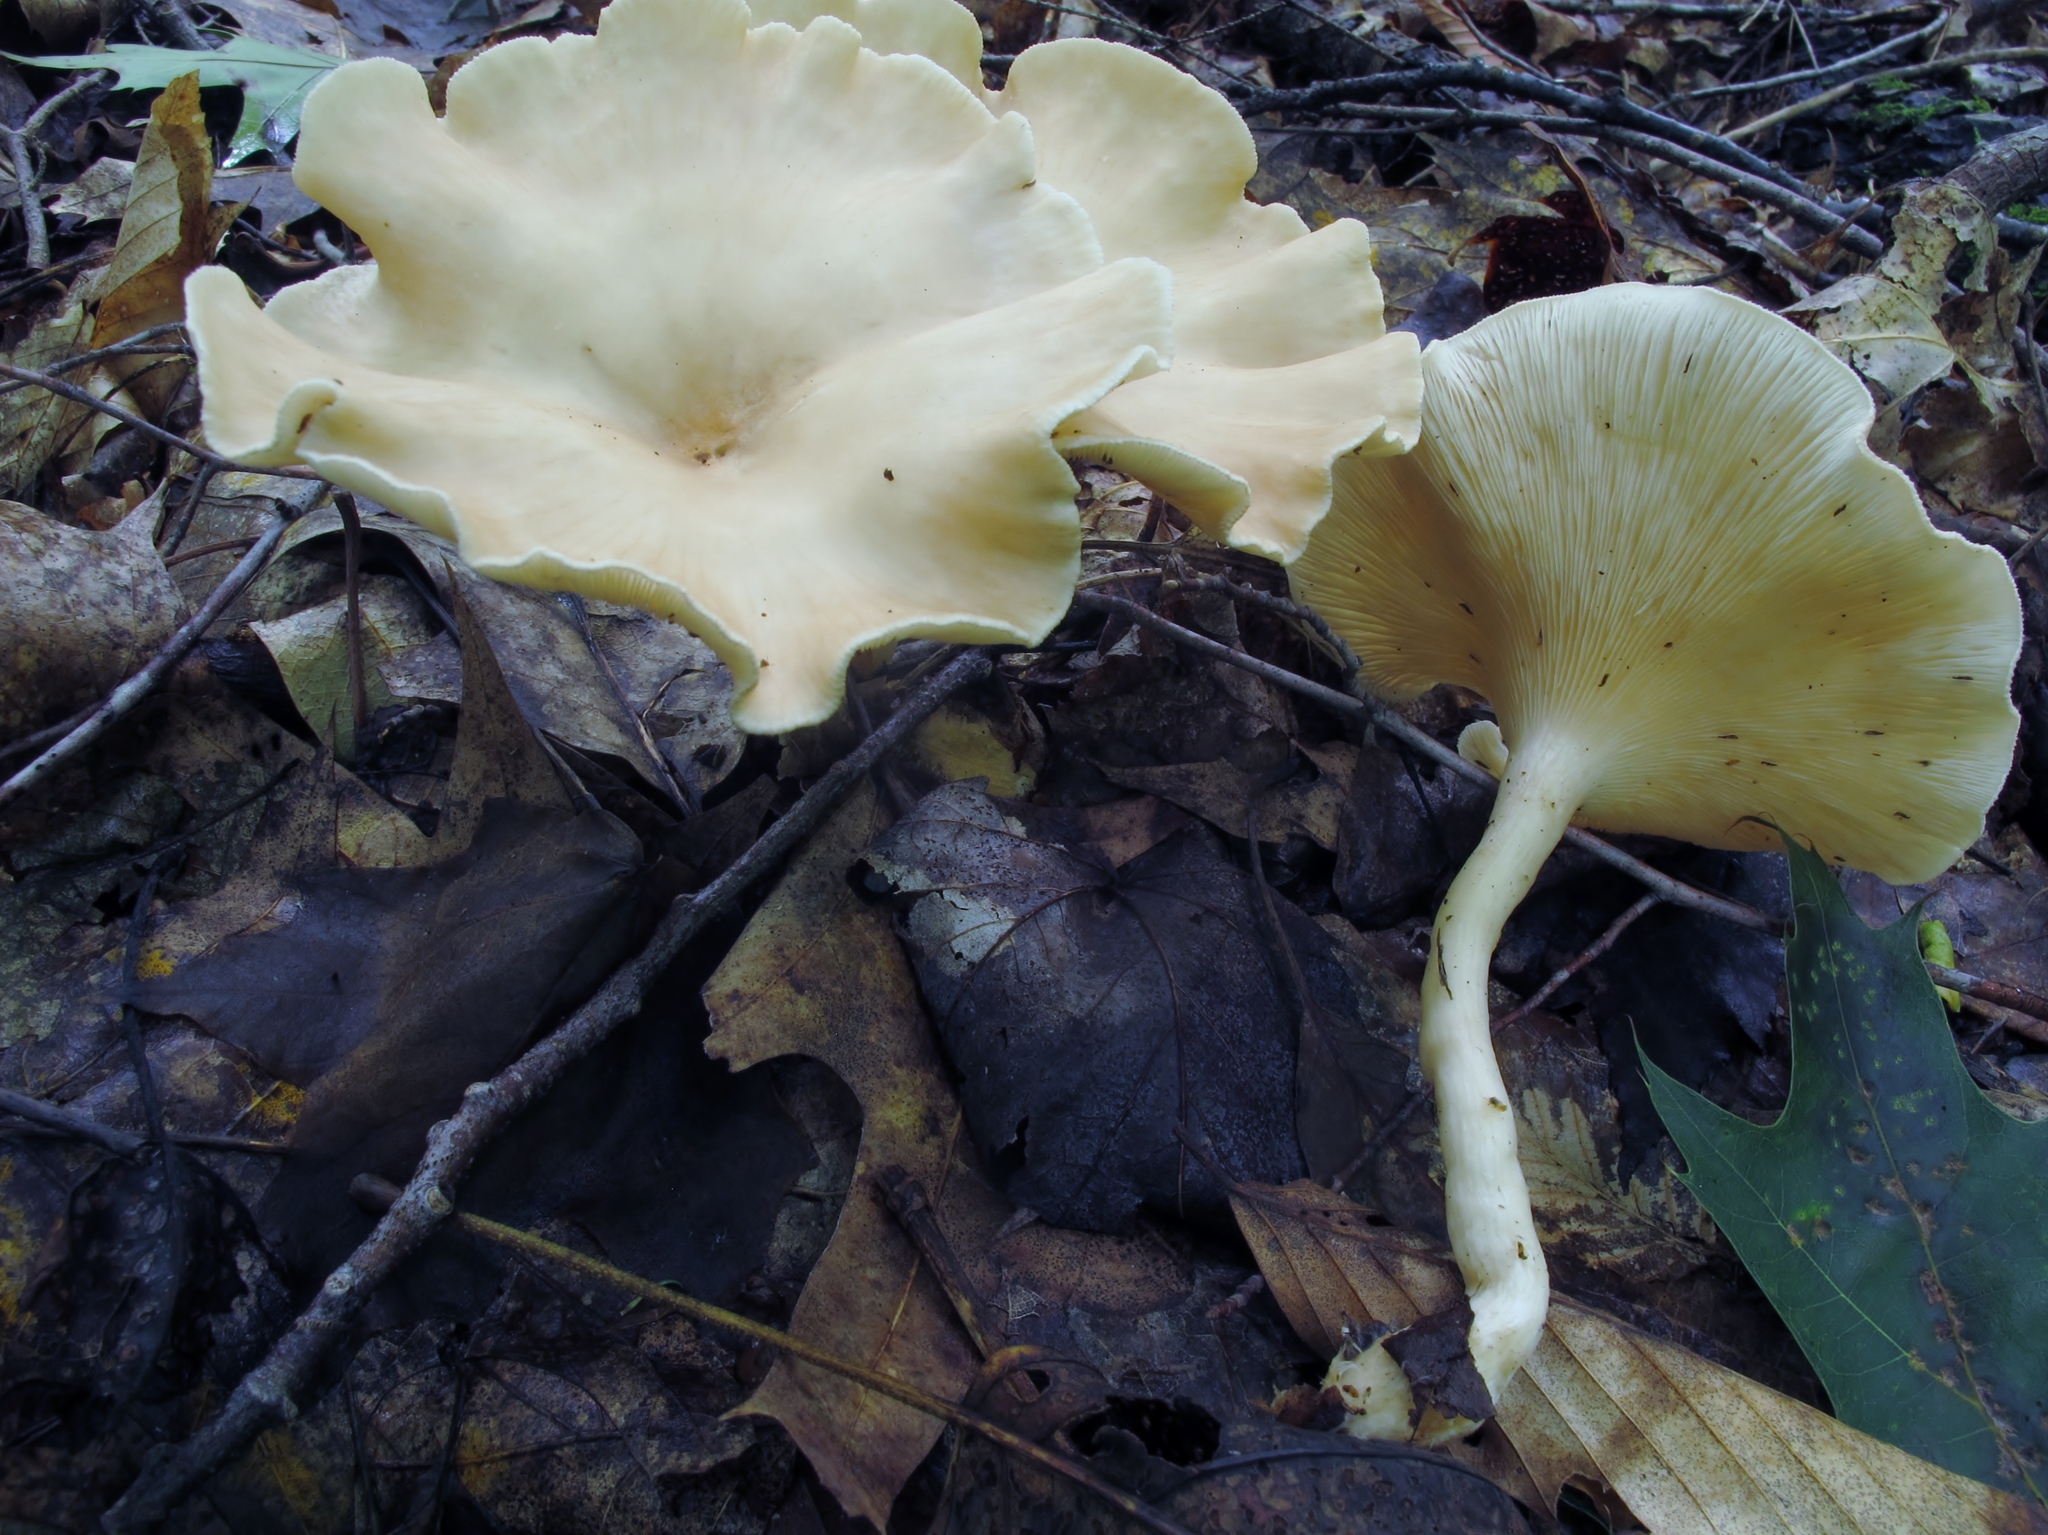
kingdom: Fungi
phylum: Basidiomycota
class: Agaricomycetes
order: Agaricales
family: Tricholomataceae
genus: Infundibulicybe
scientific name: Infundibulicybe gibba
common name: Common funnel
